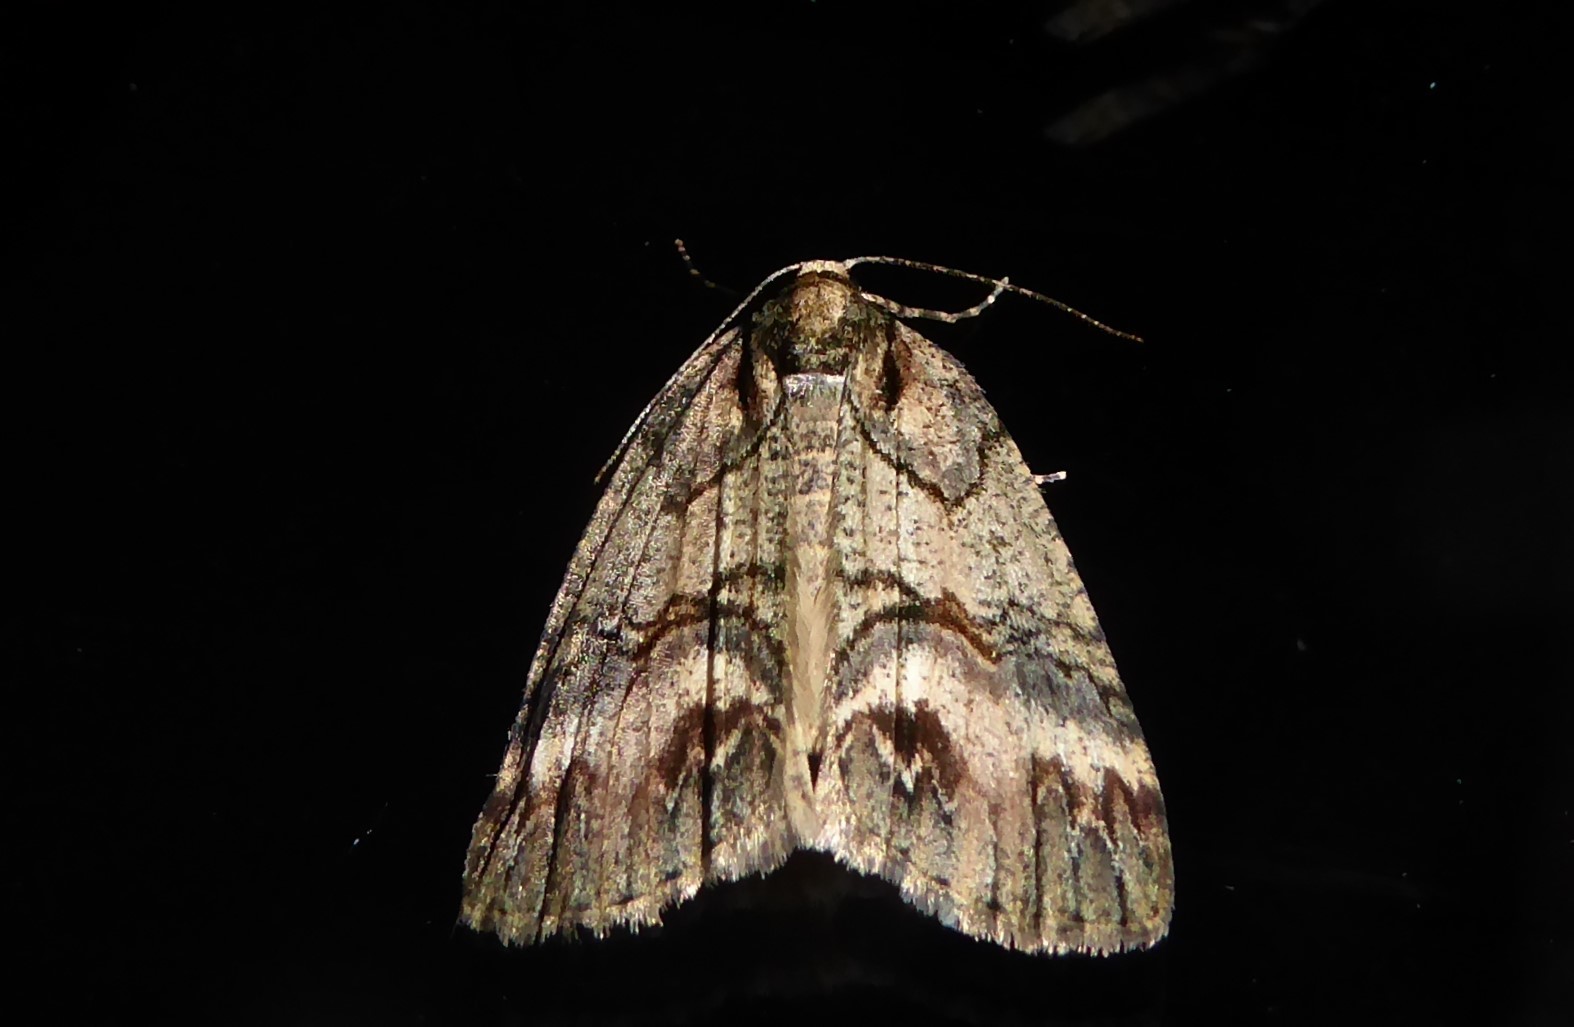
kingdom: Animalia
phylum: Arthropoda
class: Insecta
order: Lepidoptera
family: Geometridae
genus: Chalastra
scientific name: Chalastra ochrea
